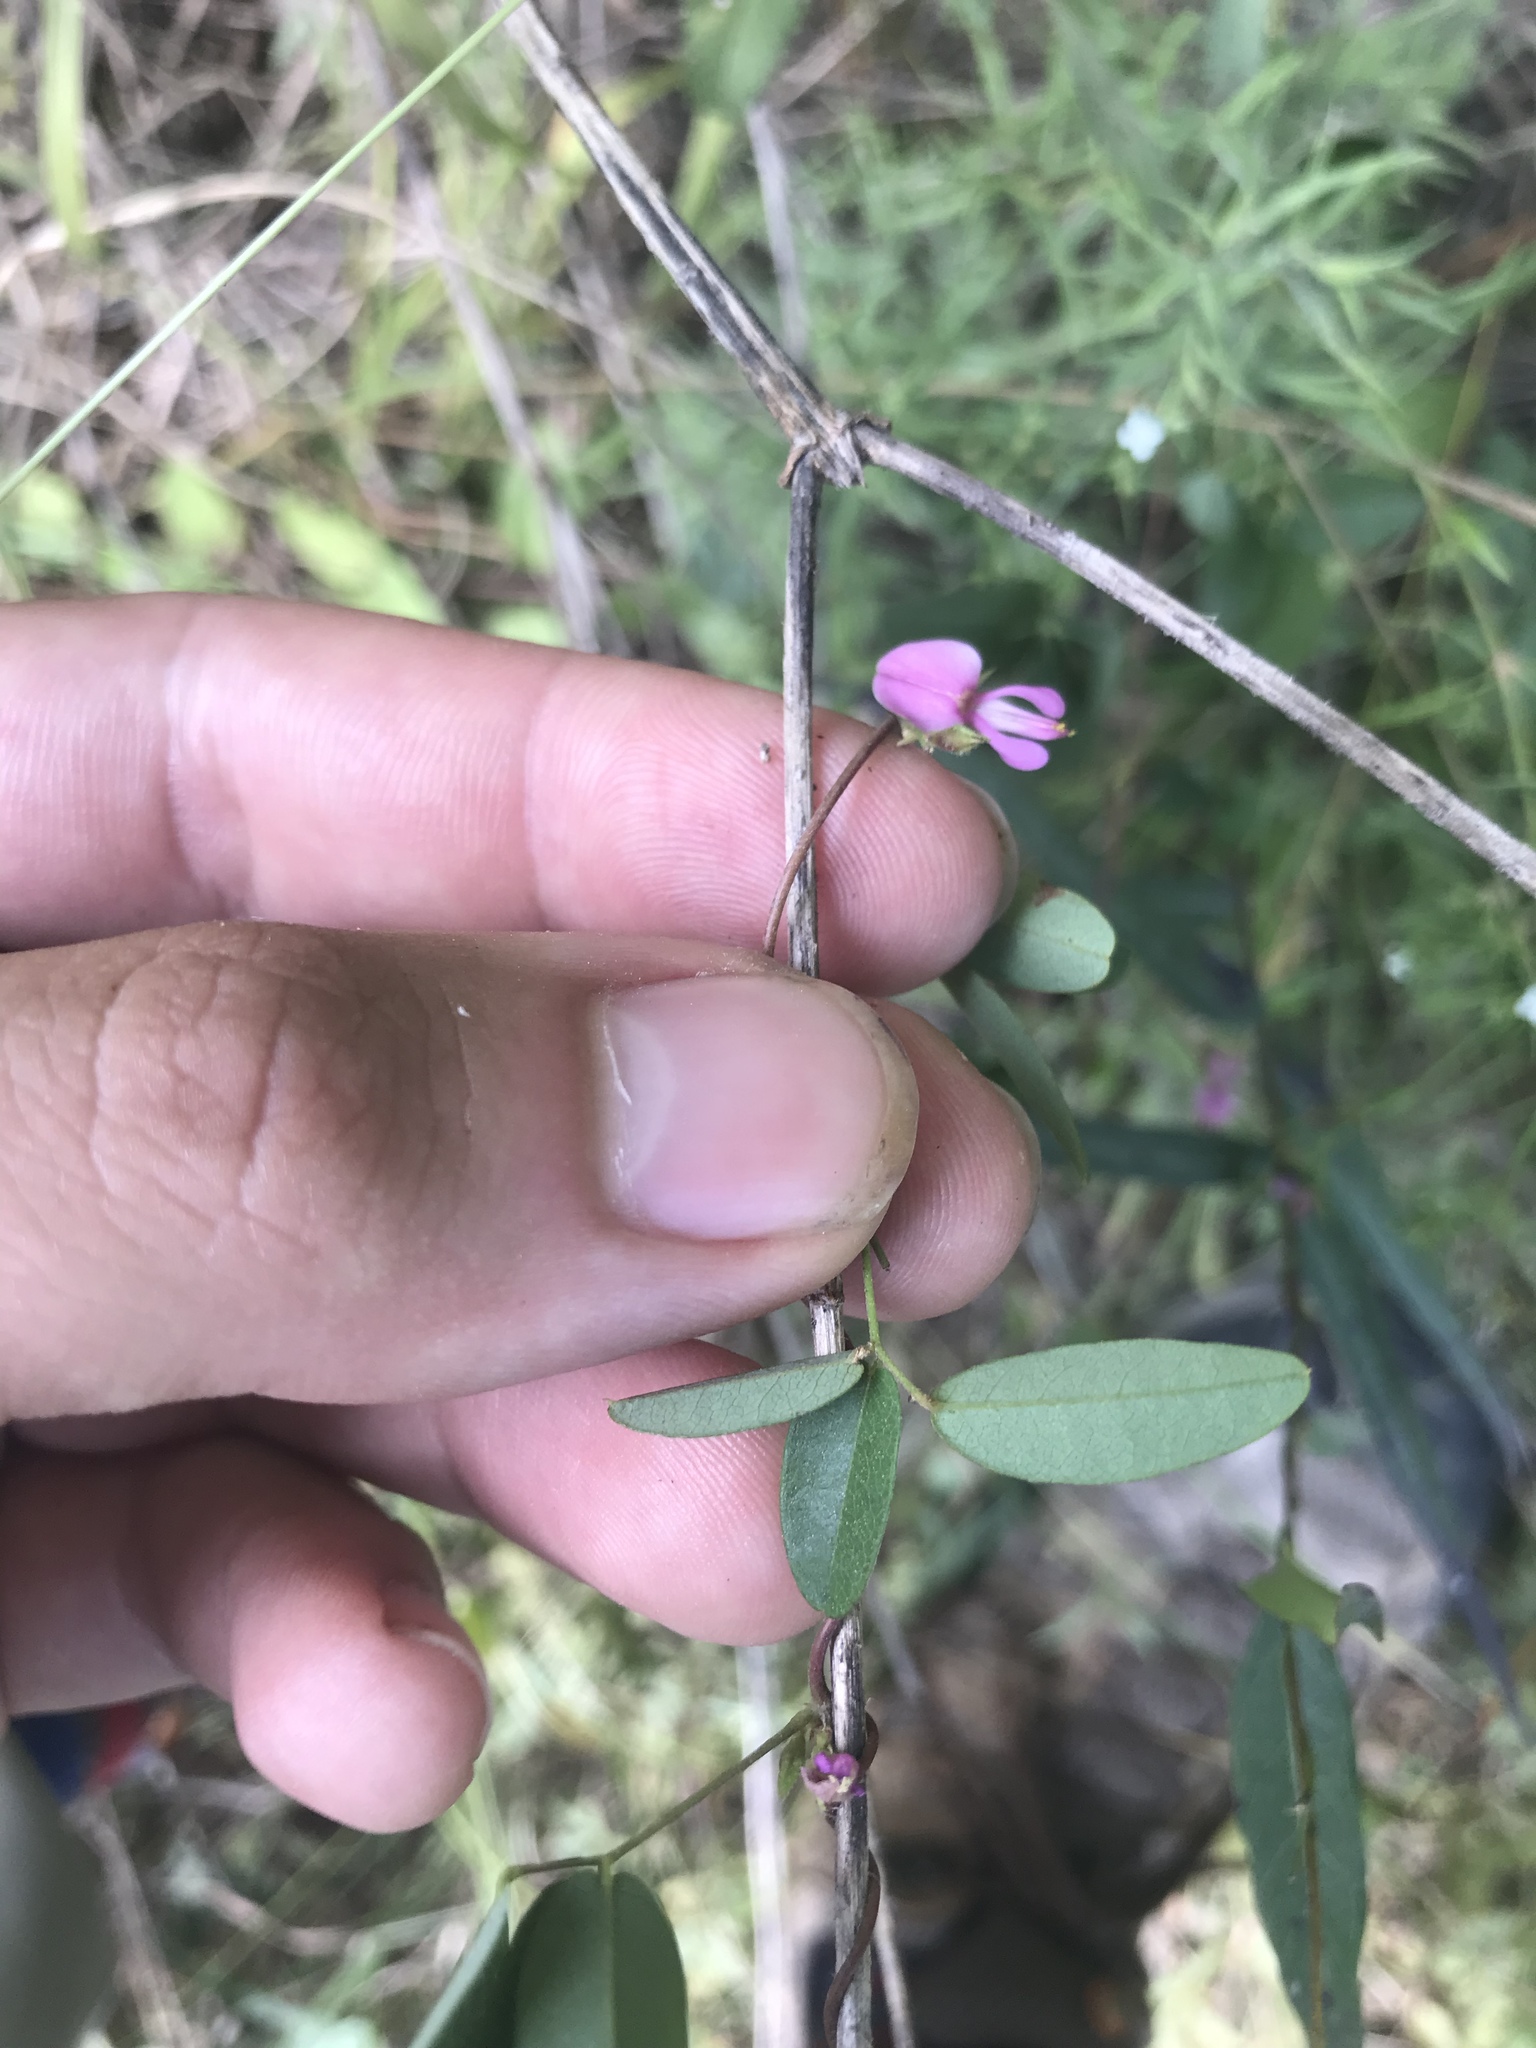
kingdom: Plantae
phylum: Tracheophyta
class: Magnoliopsida
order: Fabales
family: Fabaceae
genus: Galactia
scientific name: Galactia volubilis
